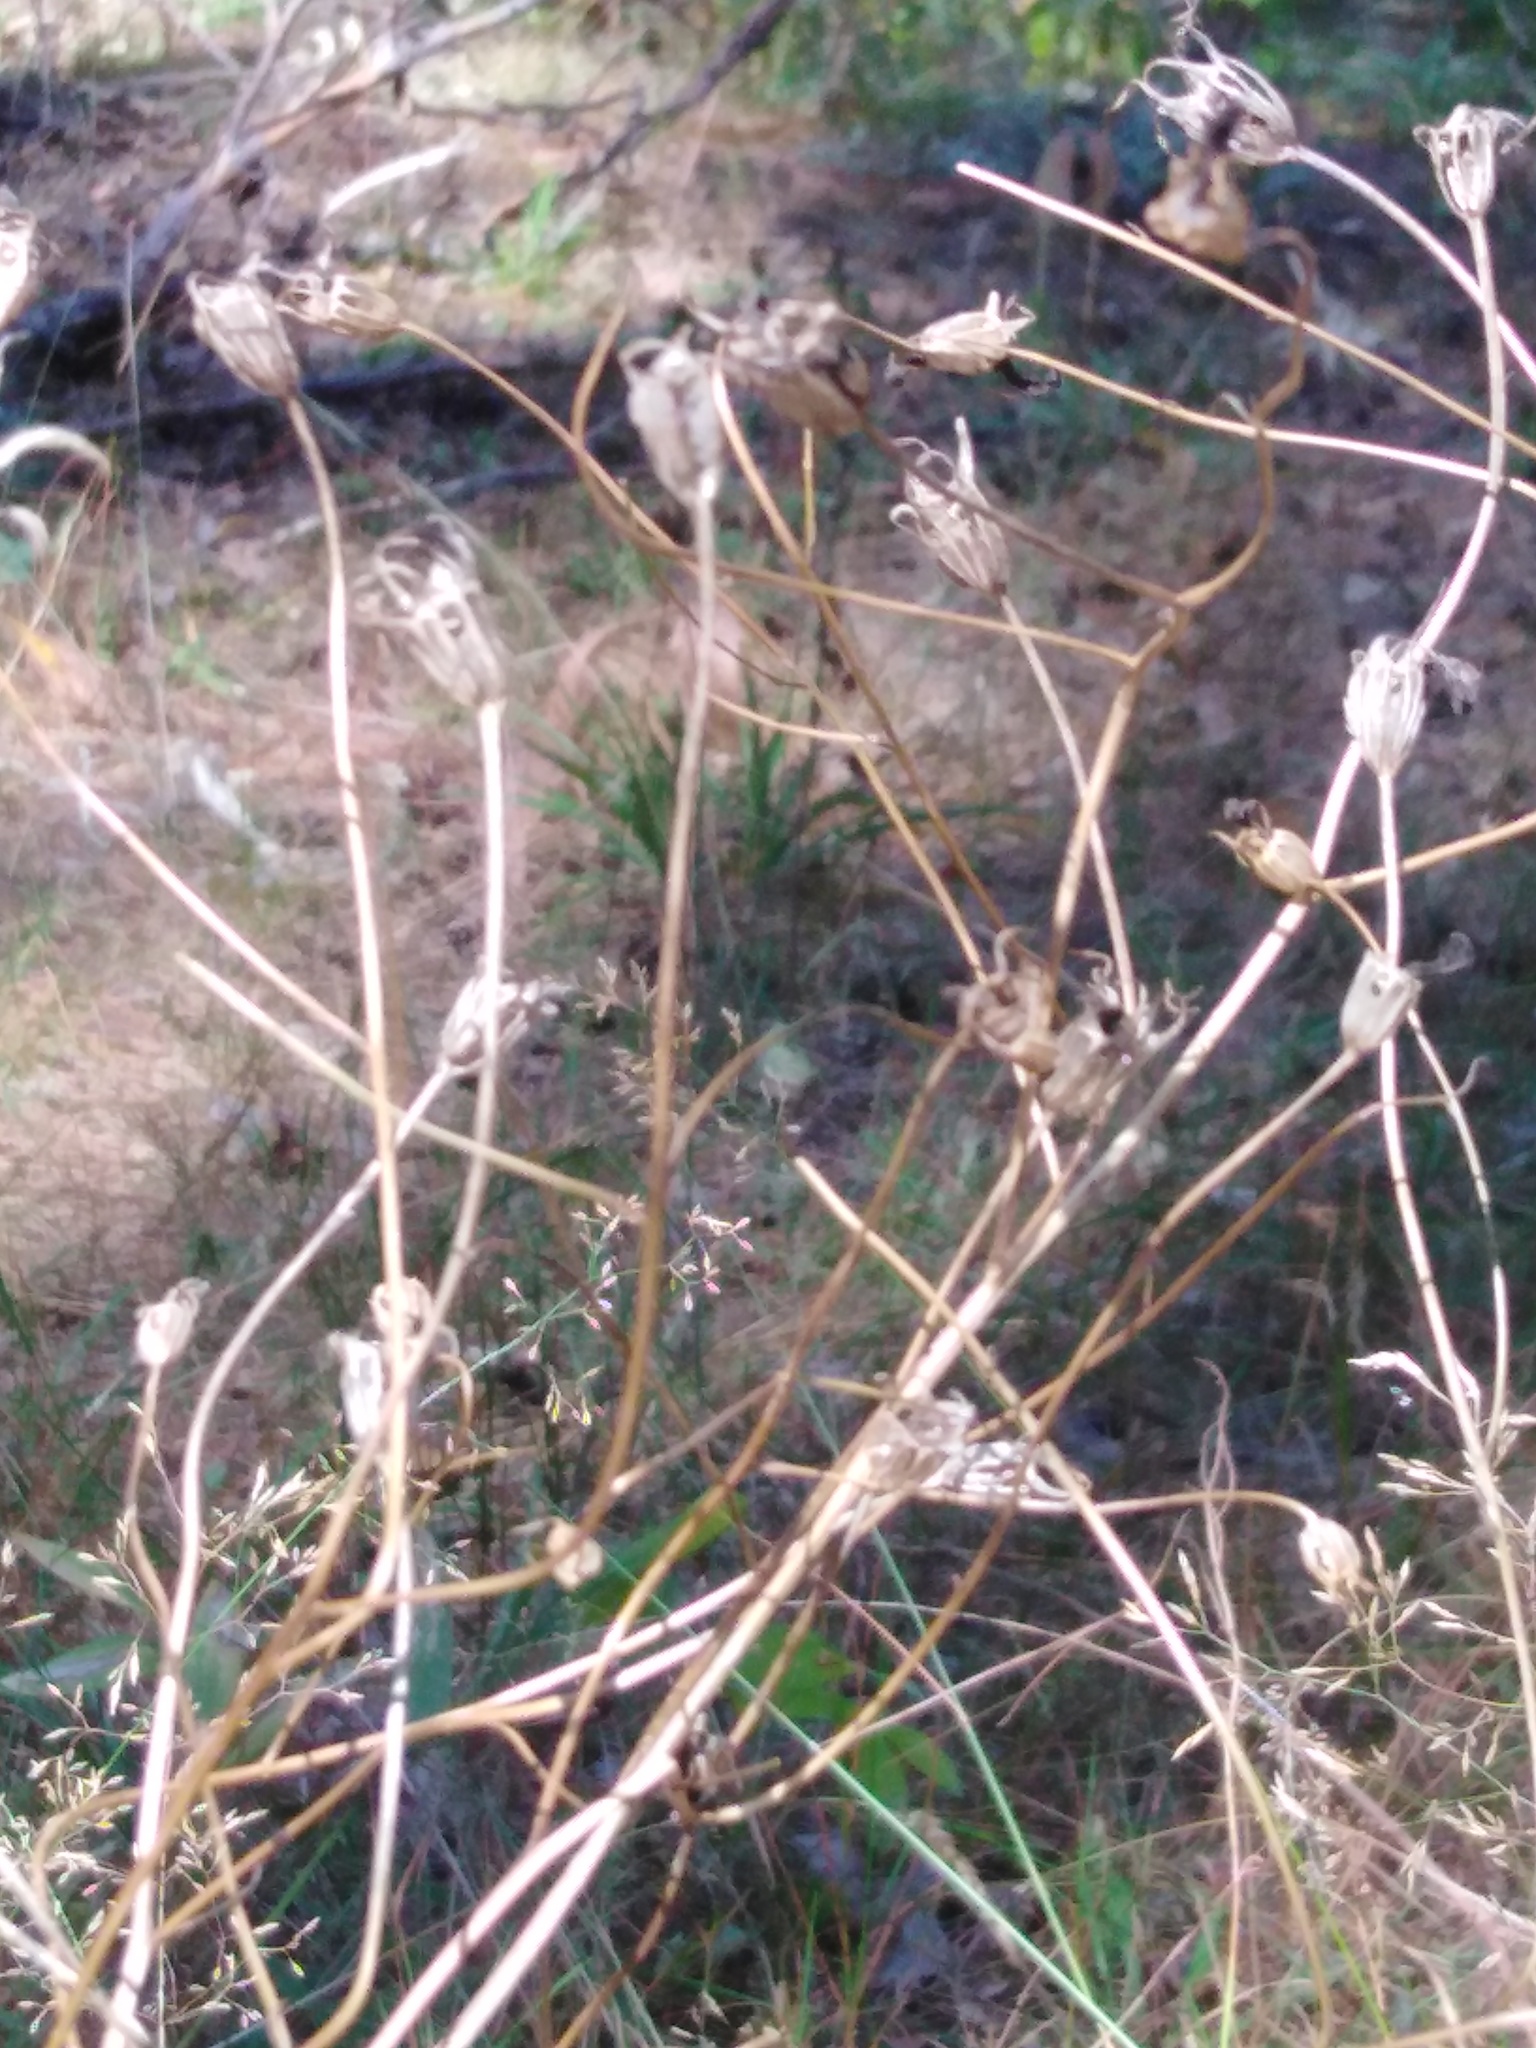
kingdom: Plantae
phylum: Tracheophyta
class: Magnoliopsida
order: Asterales
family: Campanulaceae
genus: Campanula
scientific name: Campanula patula
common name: Spreading bellflower
